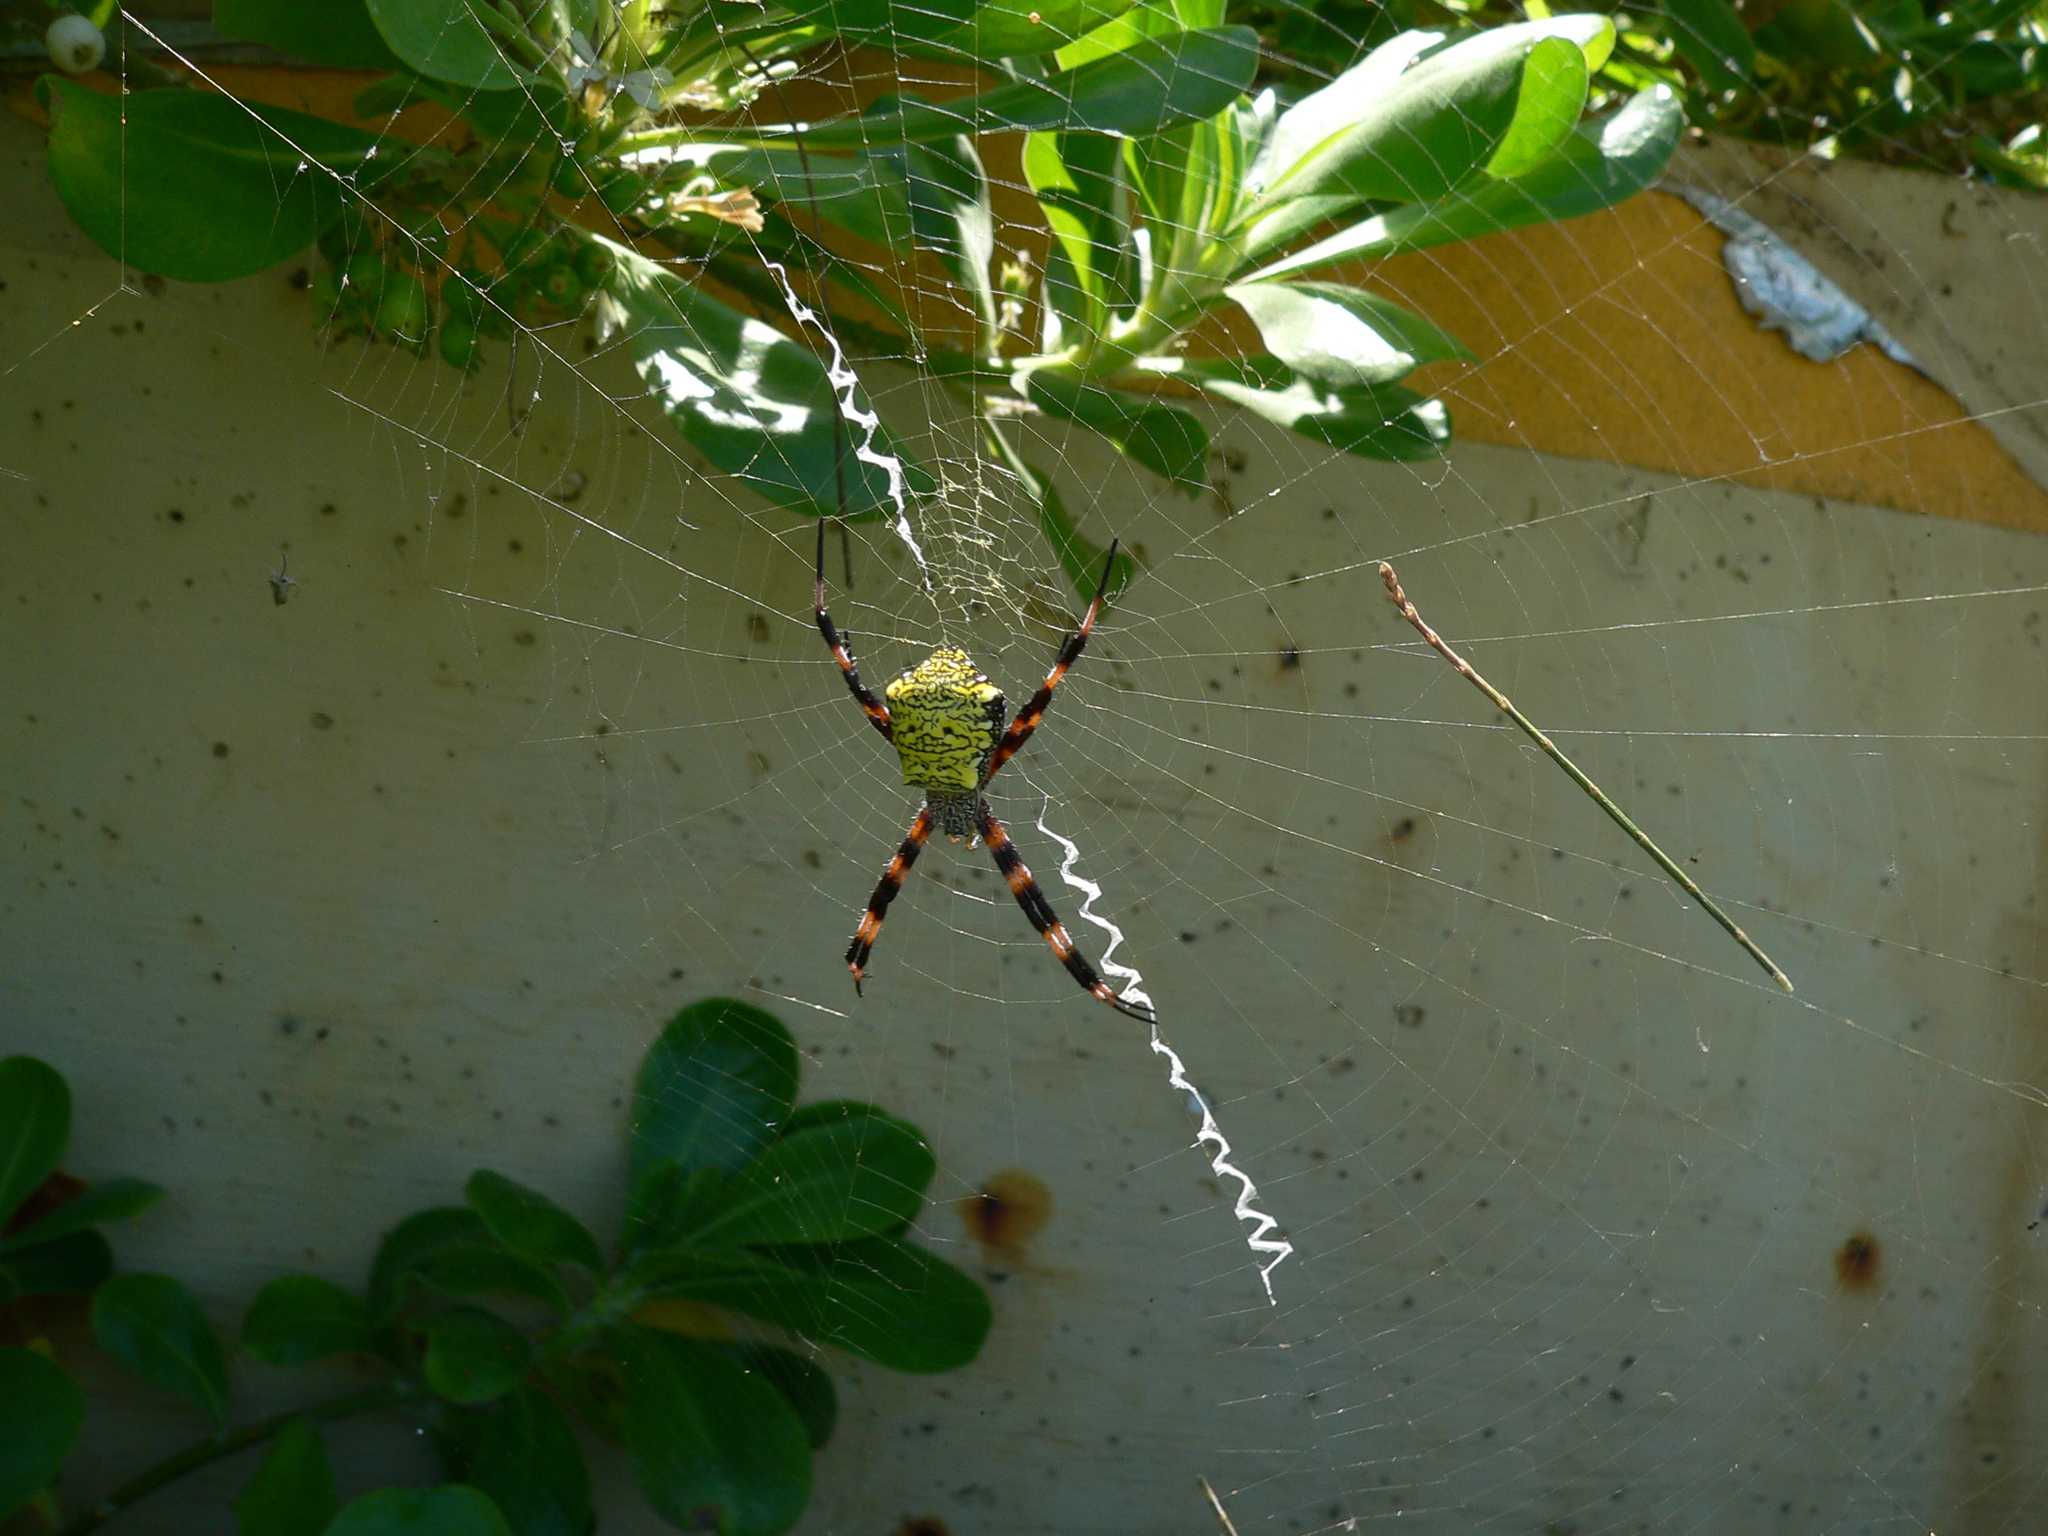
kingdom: Animalia
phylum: Arthropoda
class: Arachnida
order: Araneae
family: Araneidae
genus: Argiope
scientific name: Argiope appensa
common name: Garden spider
